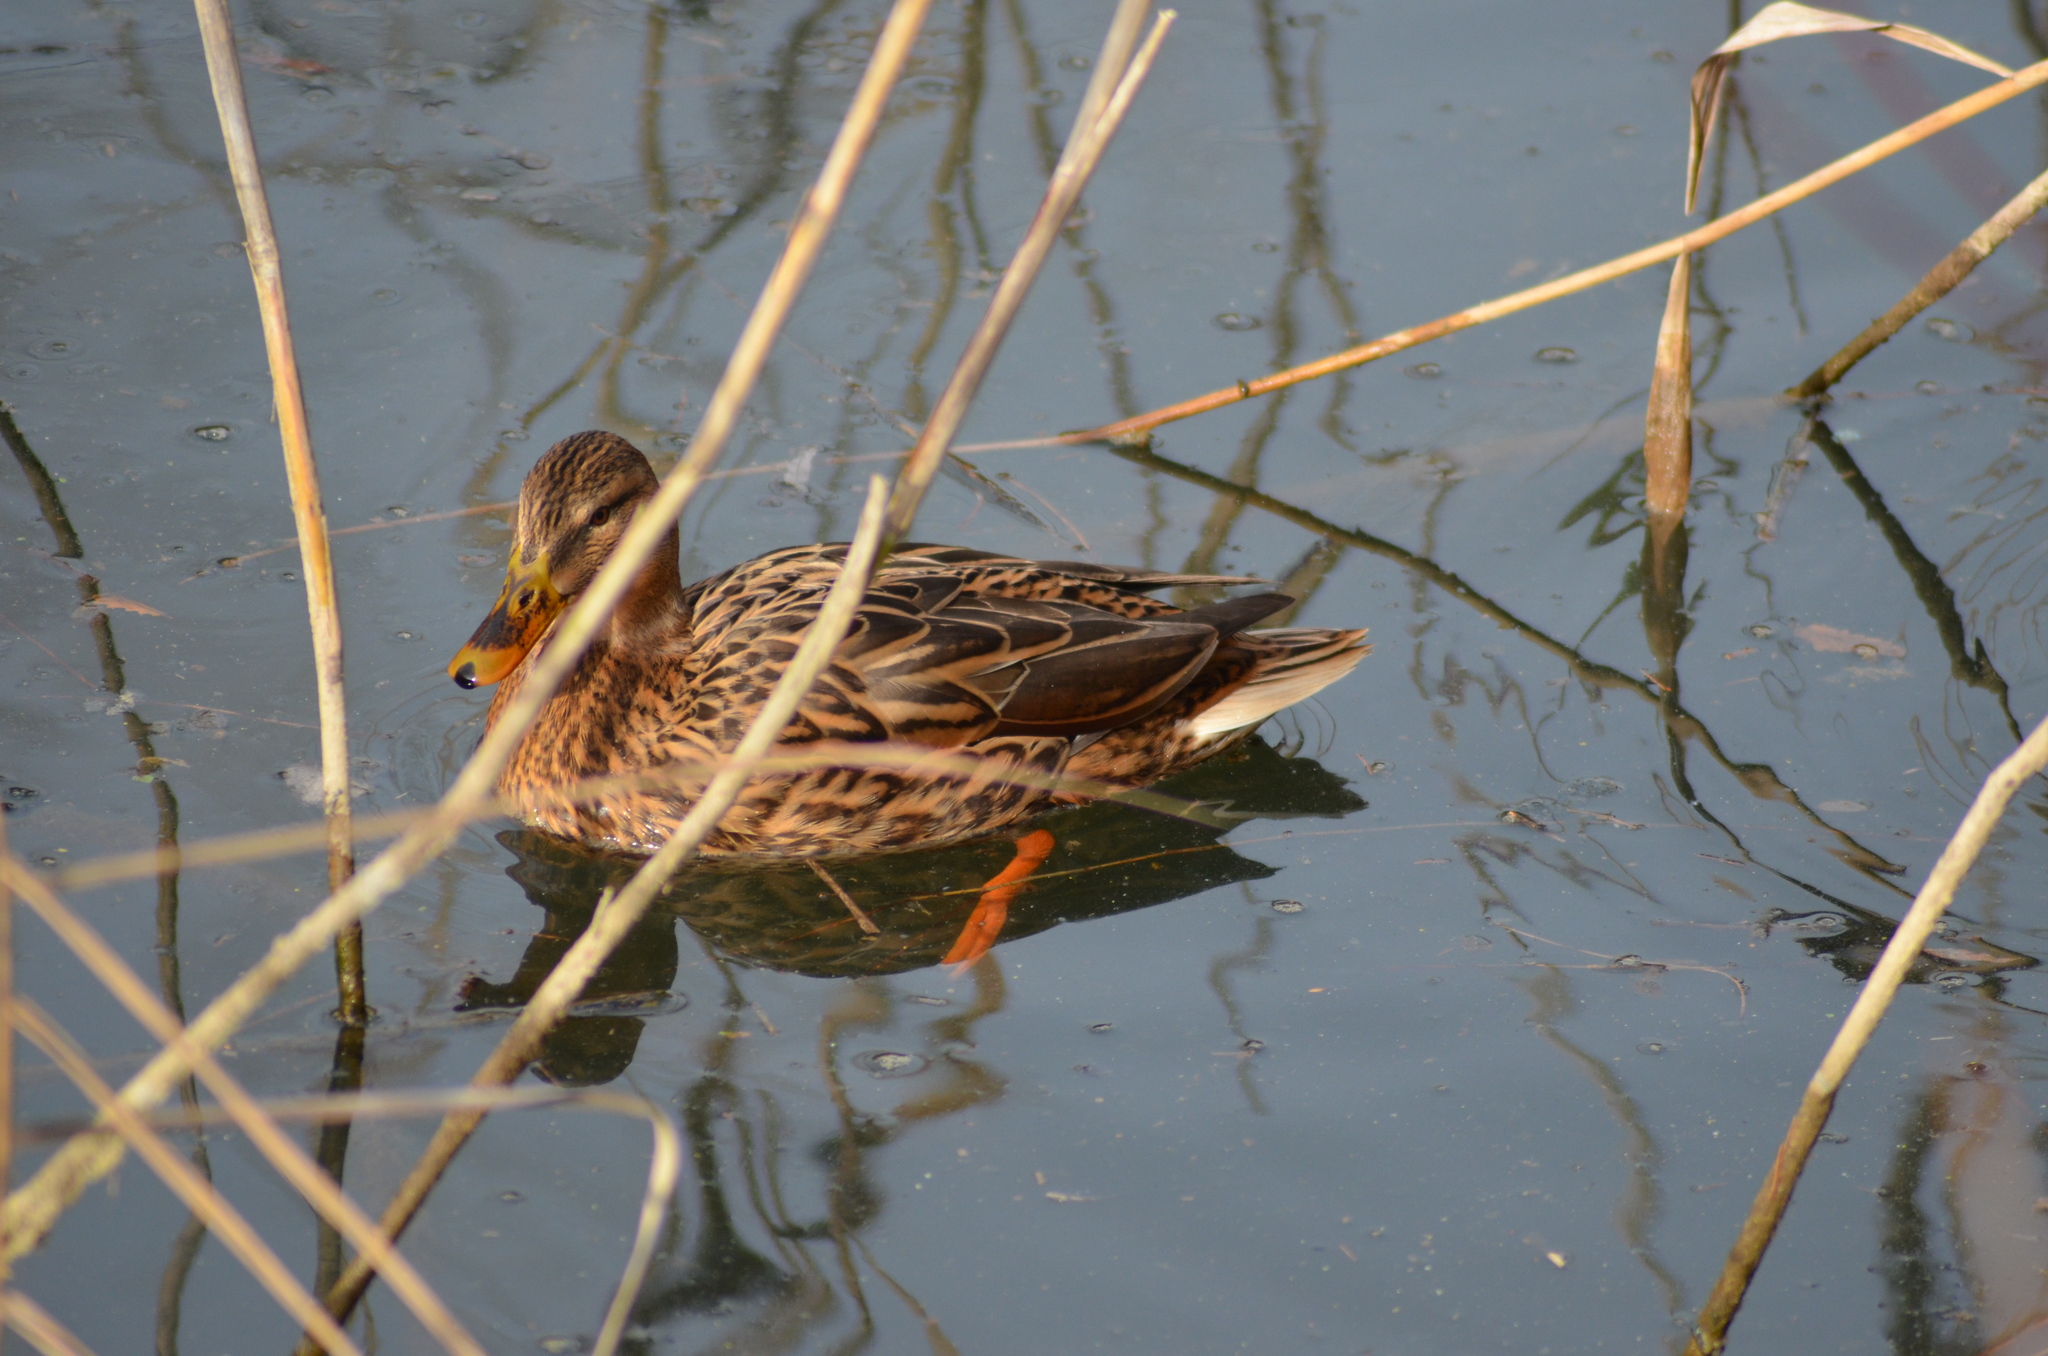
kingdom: Animalia
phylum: Chordata
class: Aves
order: Anseriformes
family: Anatidae
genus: Anas
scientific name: Anas platyrhynchos
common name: Mallard
